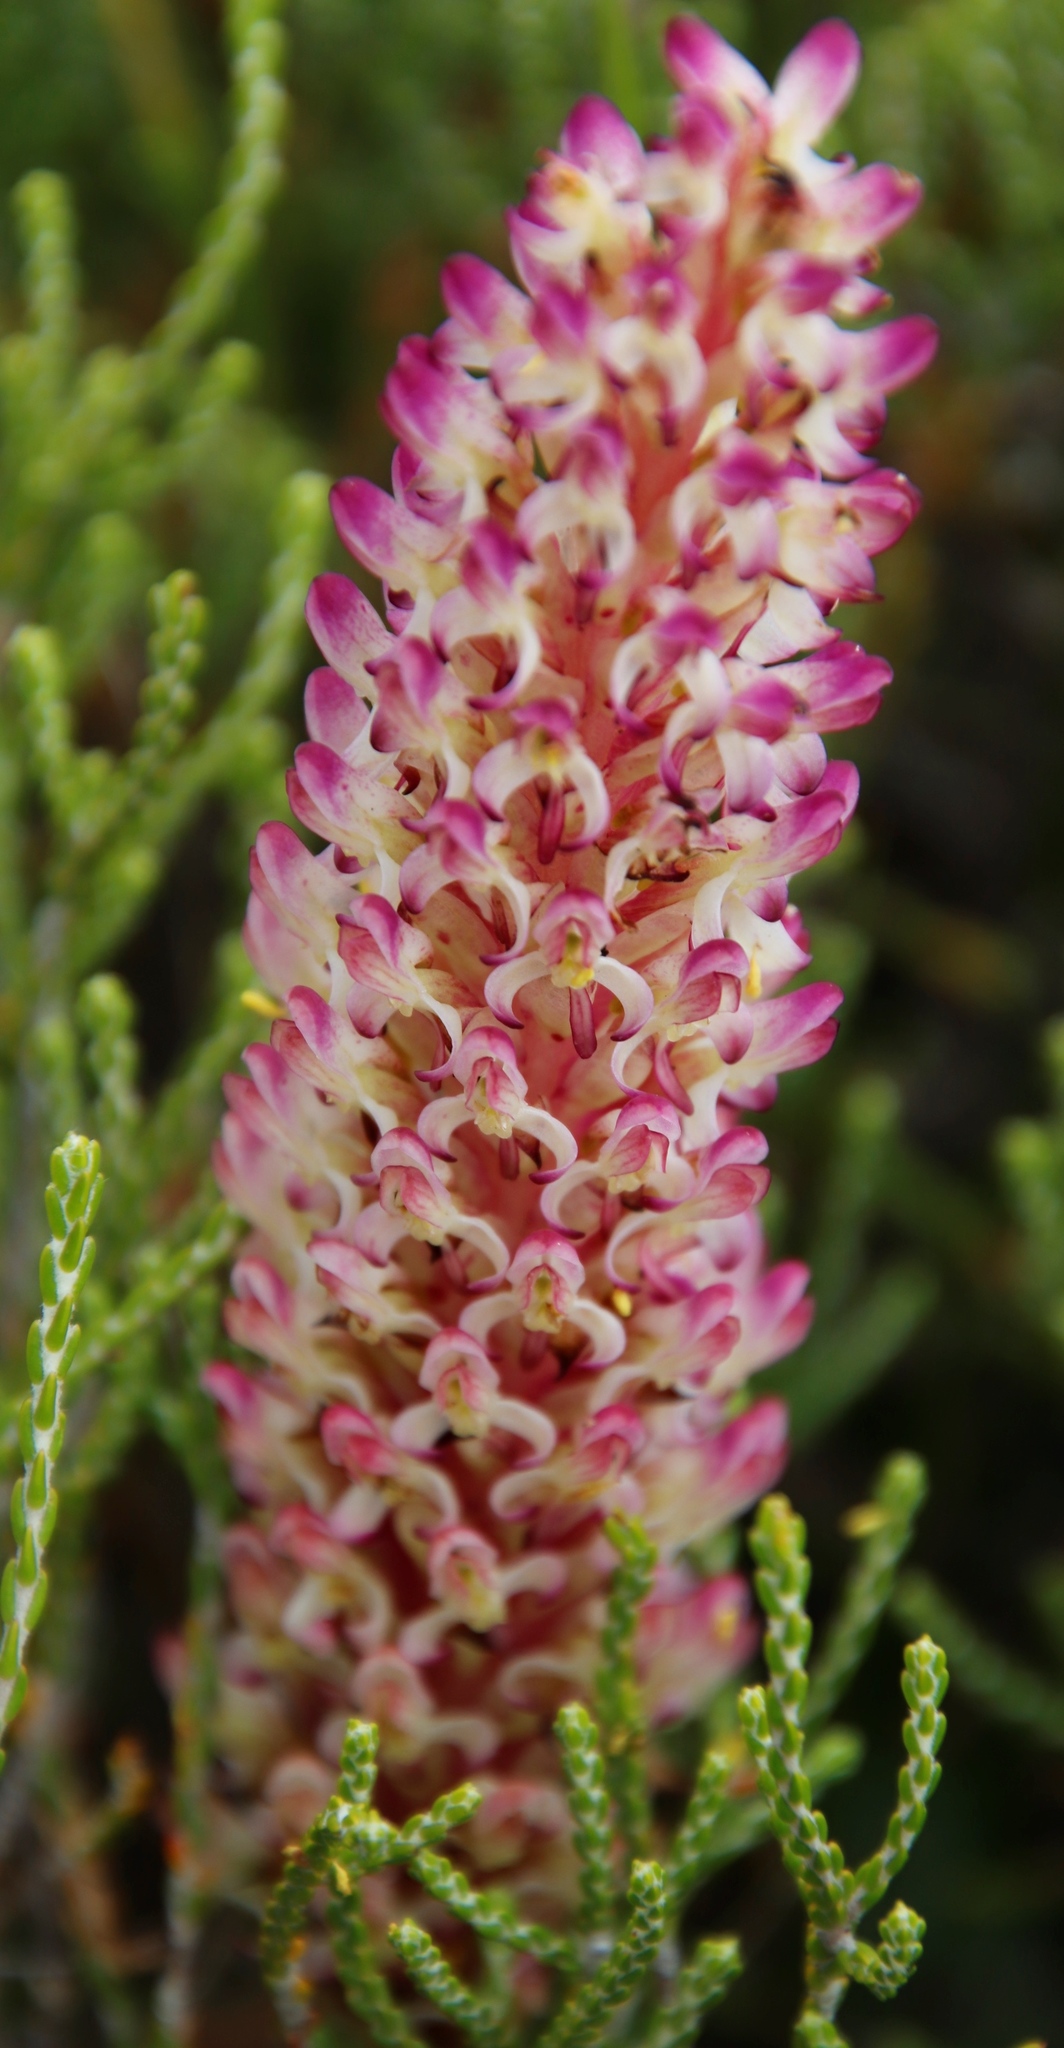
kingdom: Plantae
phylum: Tracheophyta
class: Liliopsida
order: Asparagales
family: Orchidaceae
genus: Disa
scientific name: Disa fragrans
